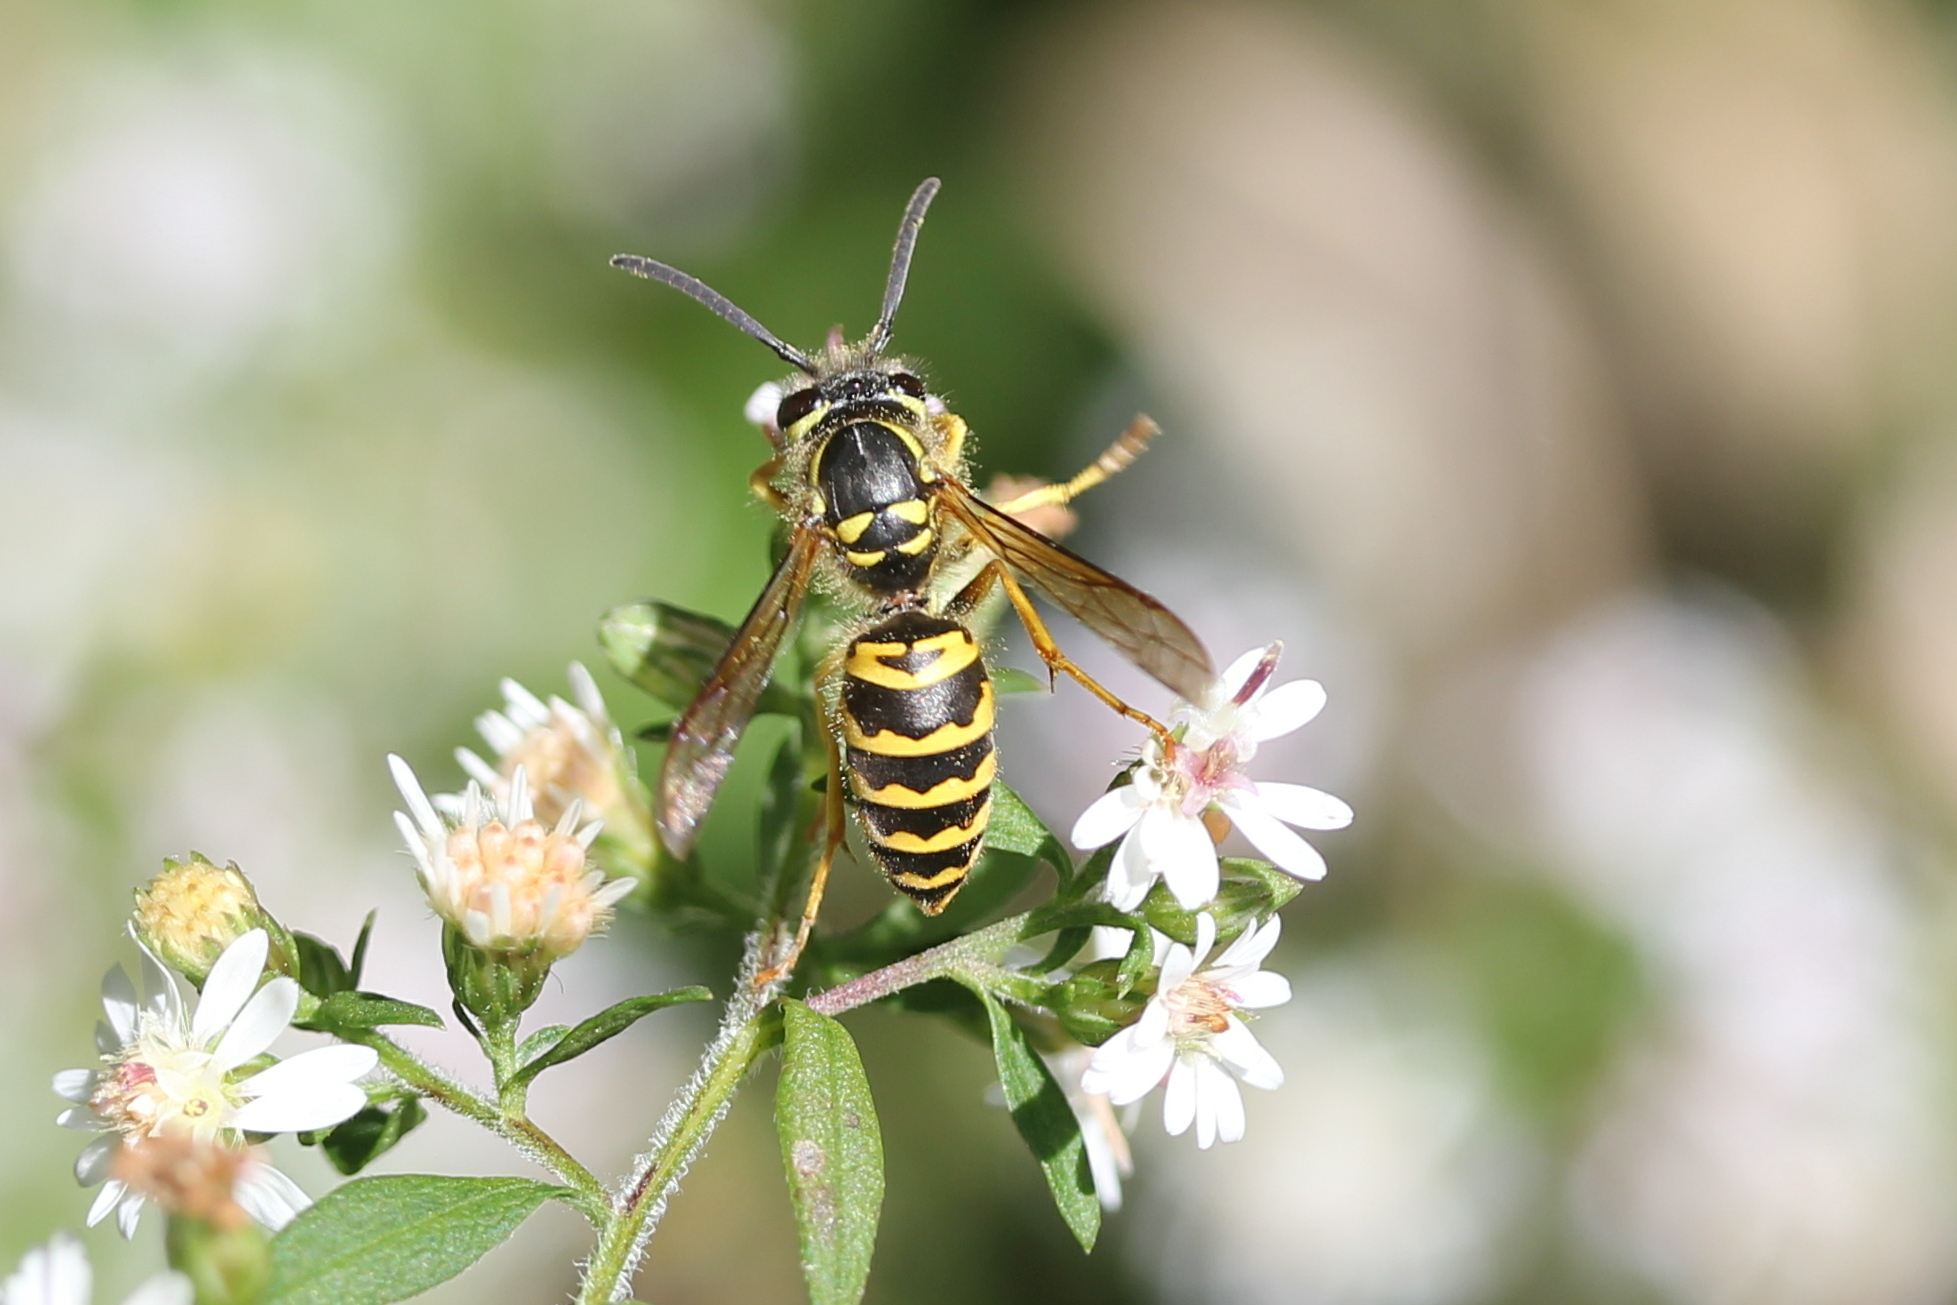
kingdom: Animalia
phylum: Arthropoda
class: Insecta
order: Hymenoptera
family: Vespidae
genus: Vespula
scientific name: Vespula maculifrons
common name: Eastern yellowjacket
